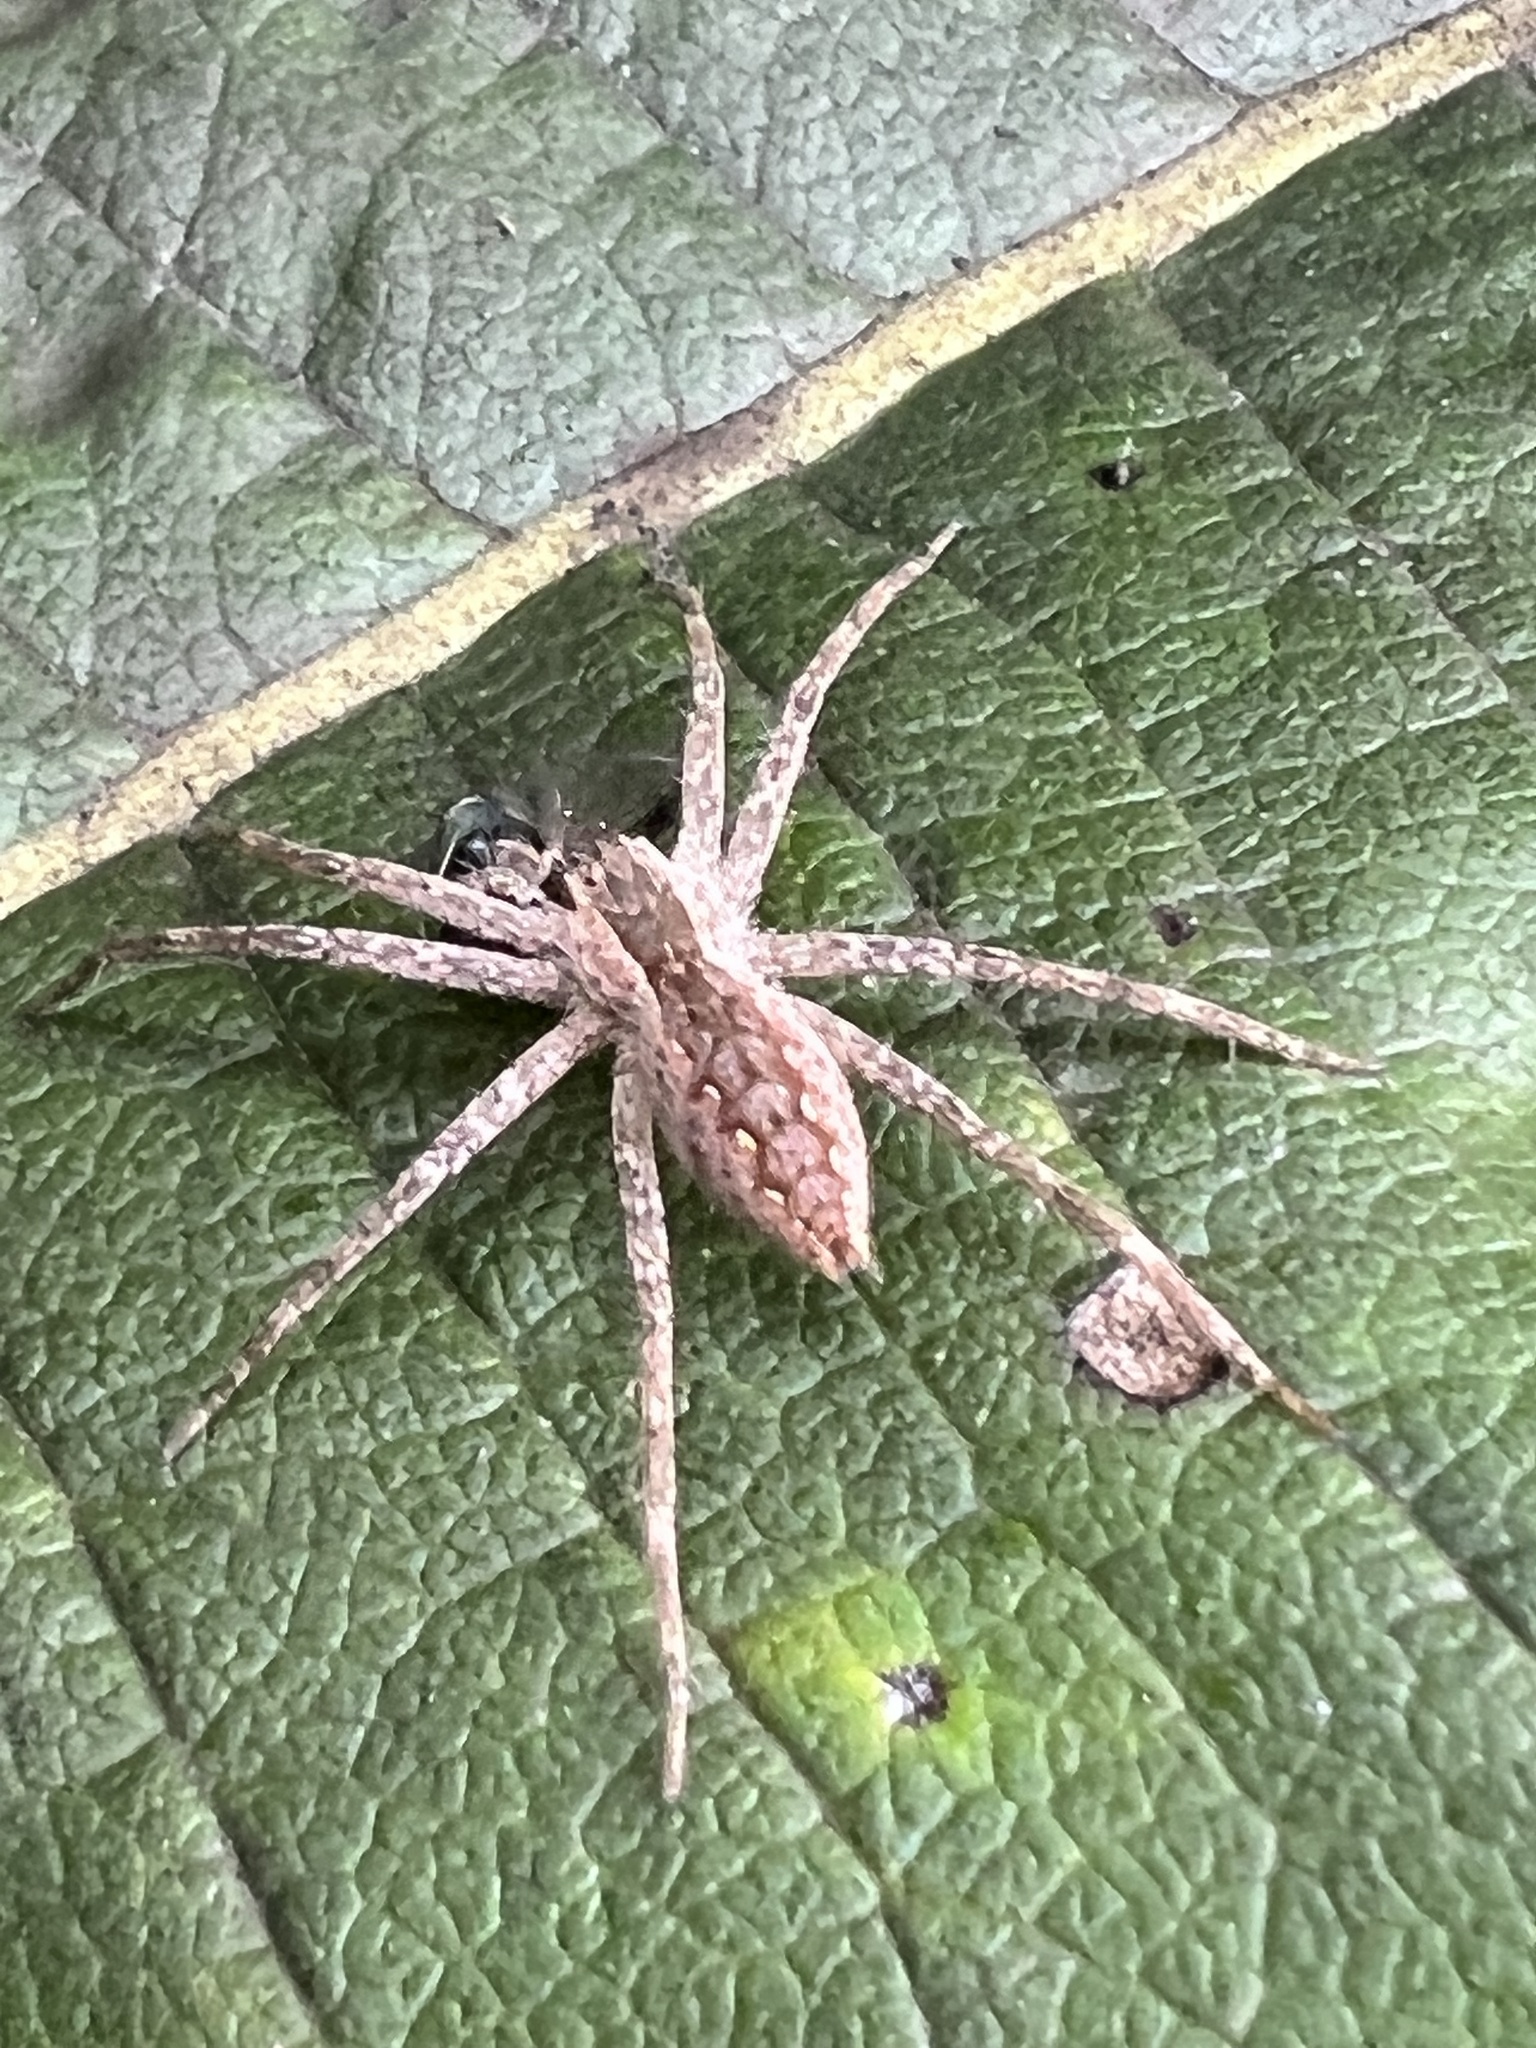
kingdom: Animalia
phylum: Arthropoda
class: Arachnida
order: Araneae
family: Pisauridae
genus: Pisaurina
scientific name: Pisaurina mira
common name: American nursery web spider
